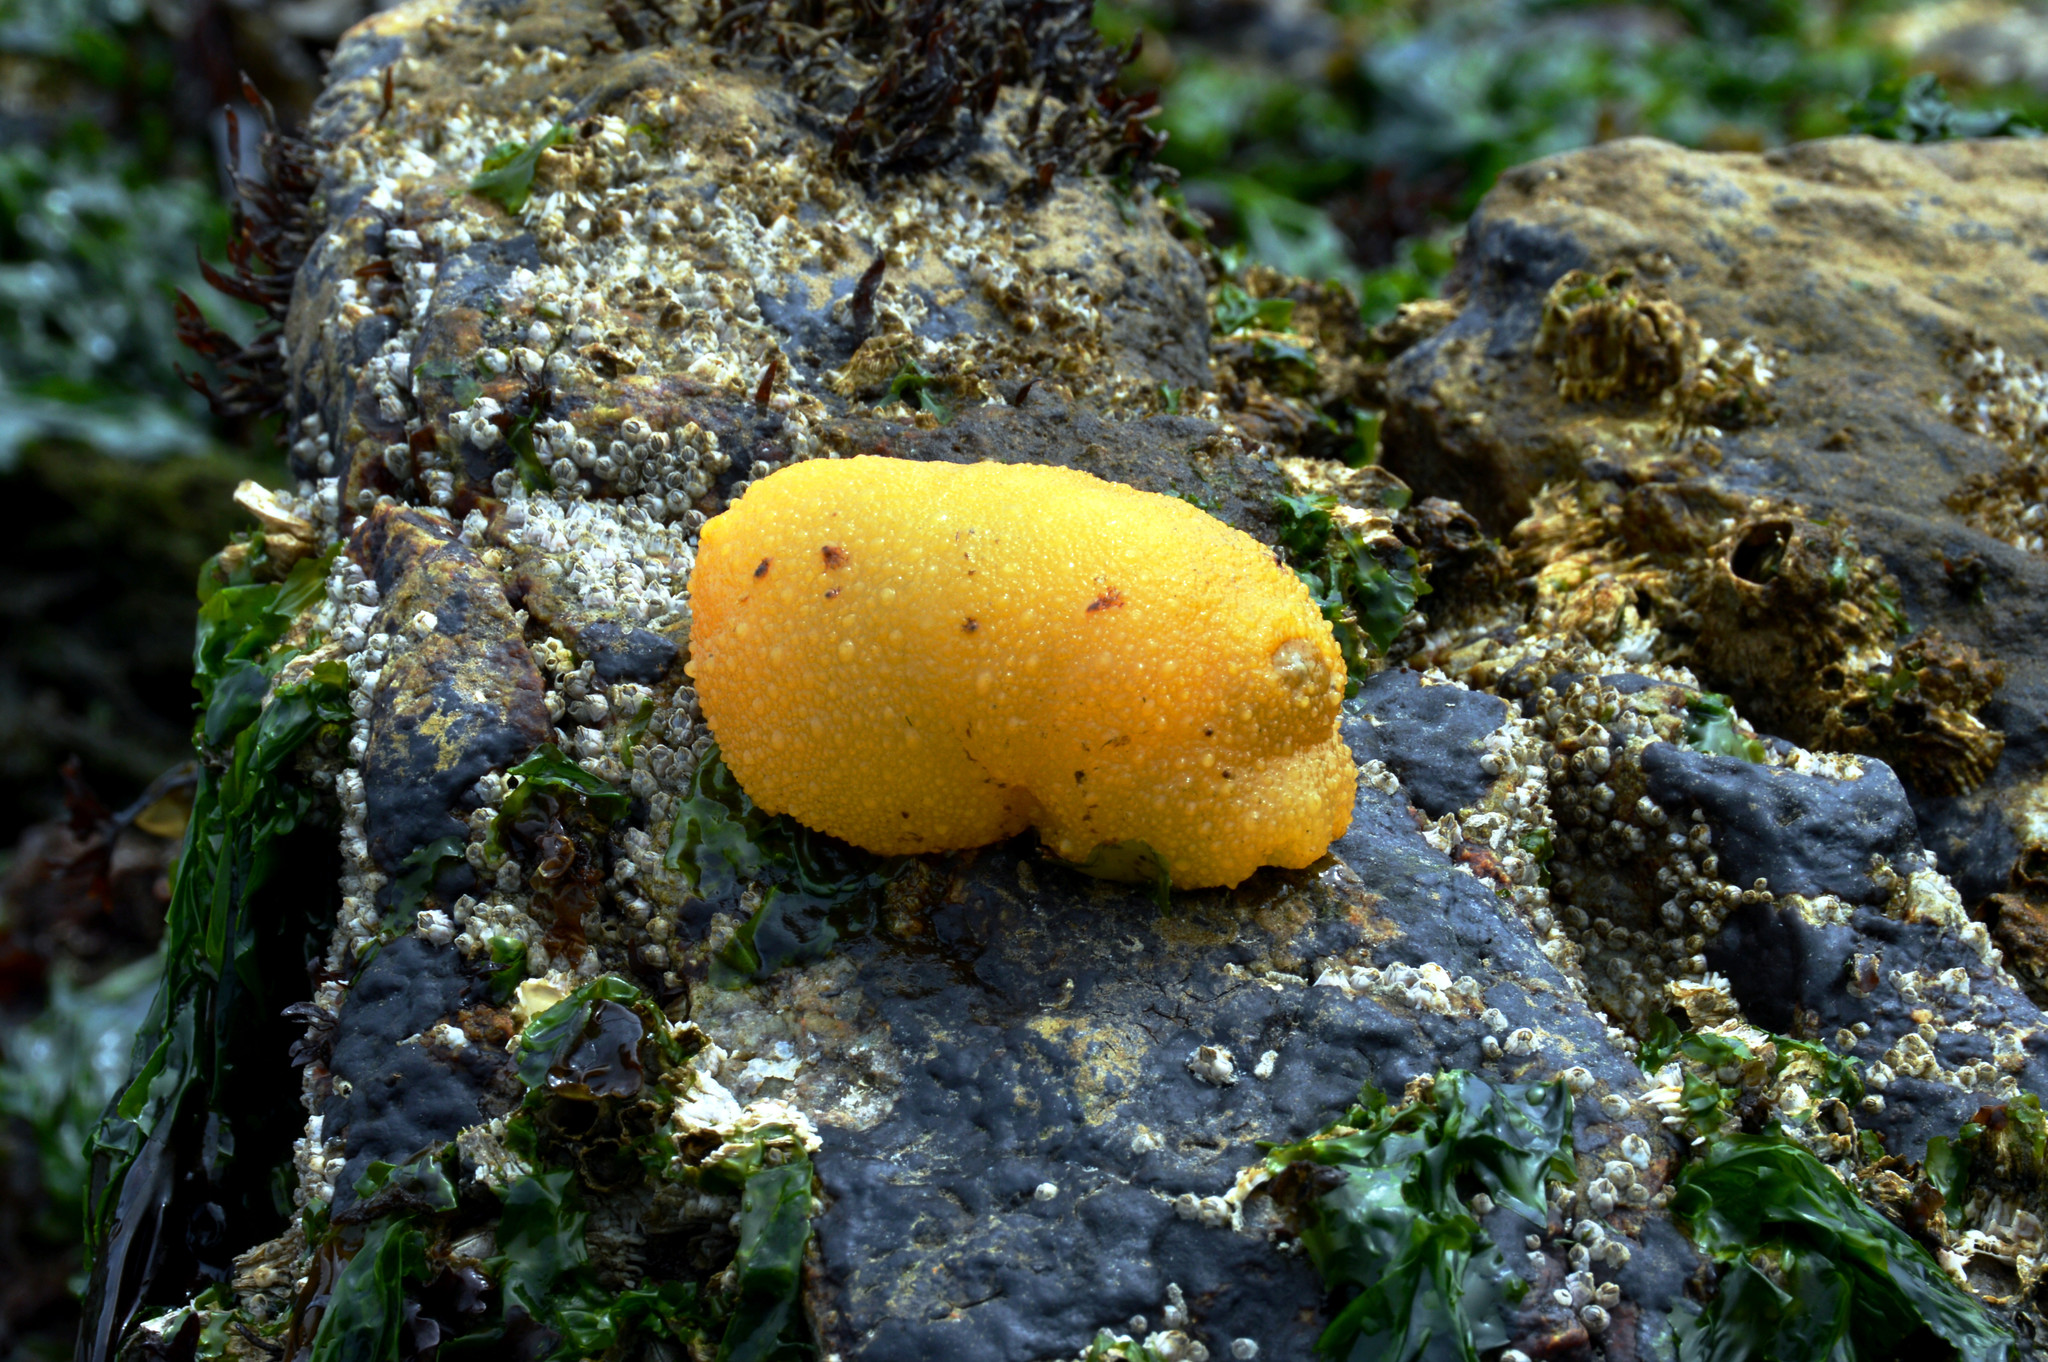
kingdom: Animalia
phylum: Mollusca
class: Gastropoda
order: Nudibranchia
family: Dorididae
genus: Doris
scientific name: Doris montereyensis
